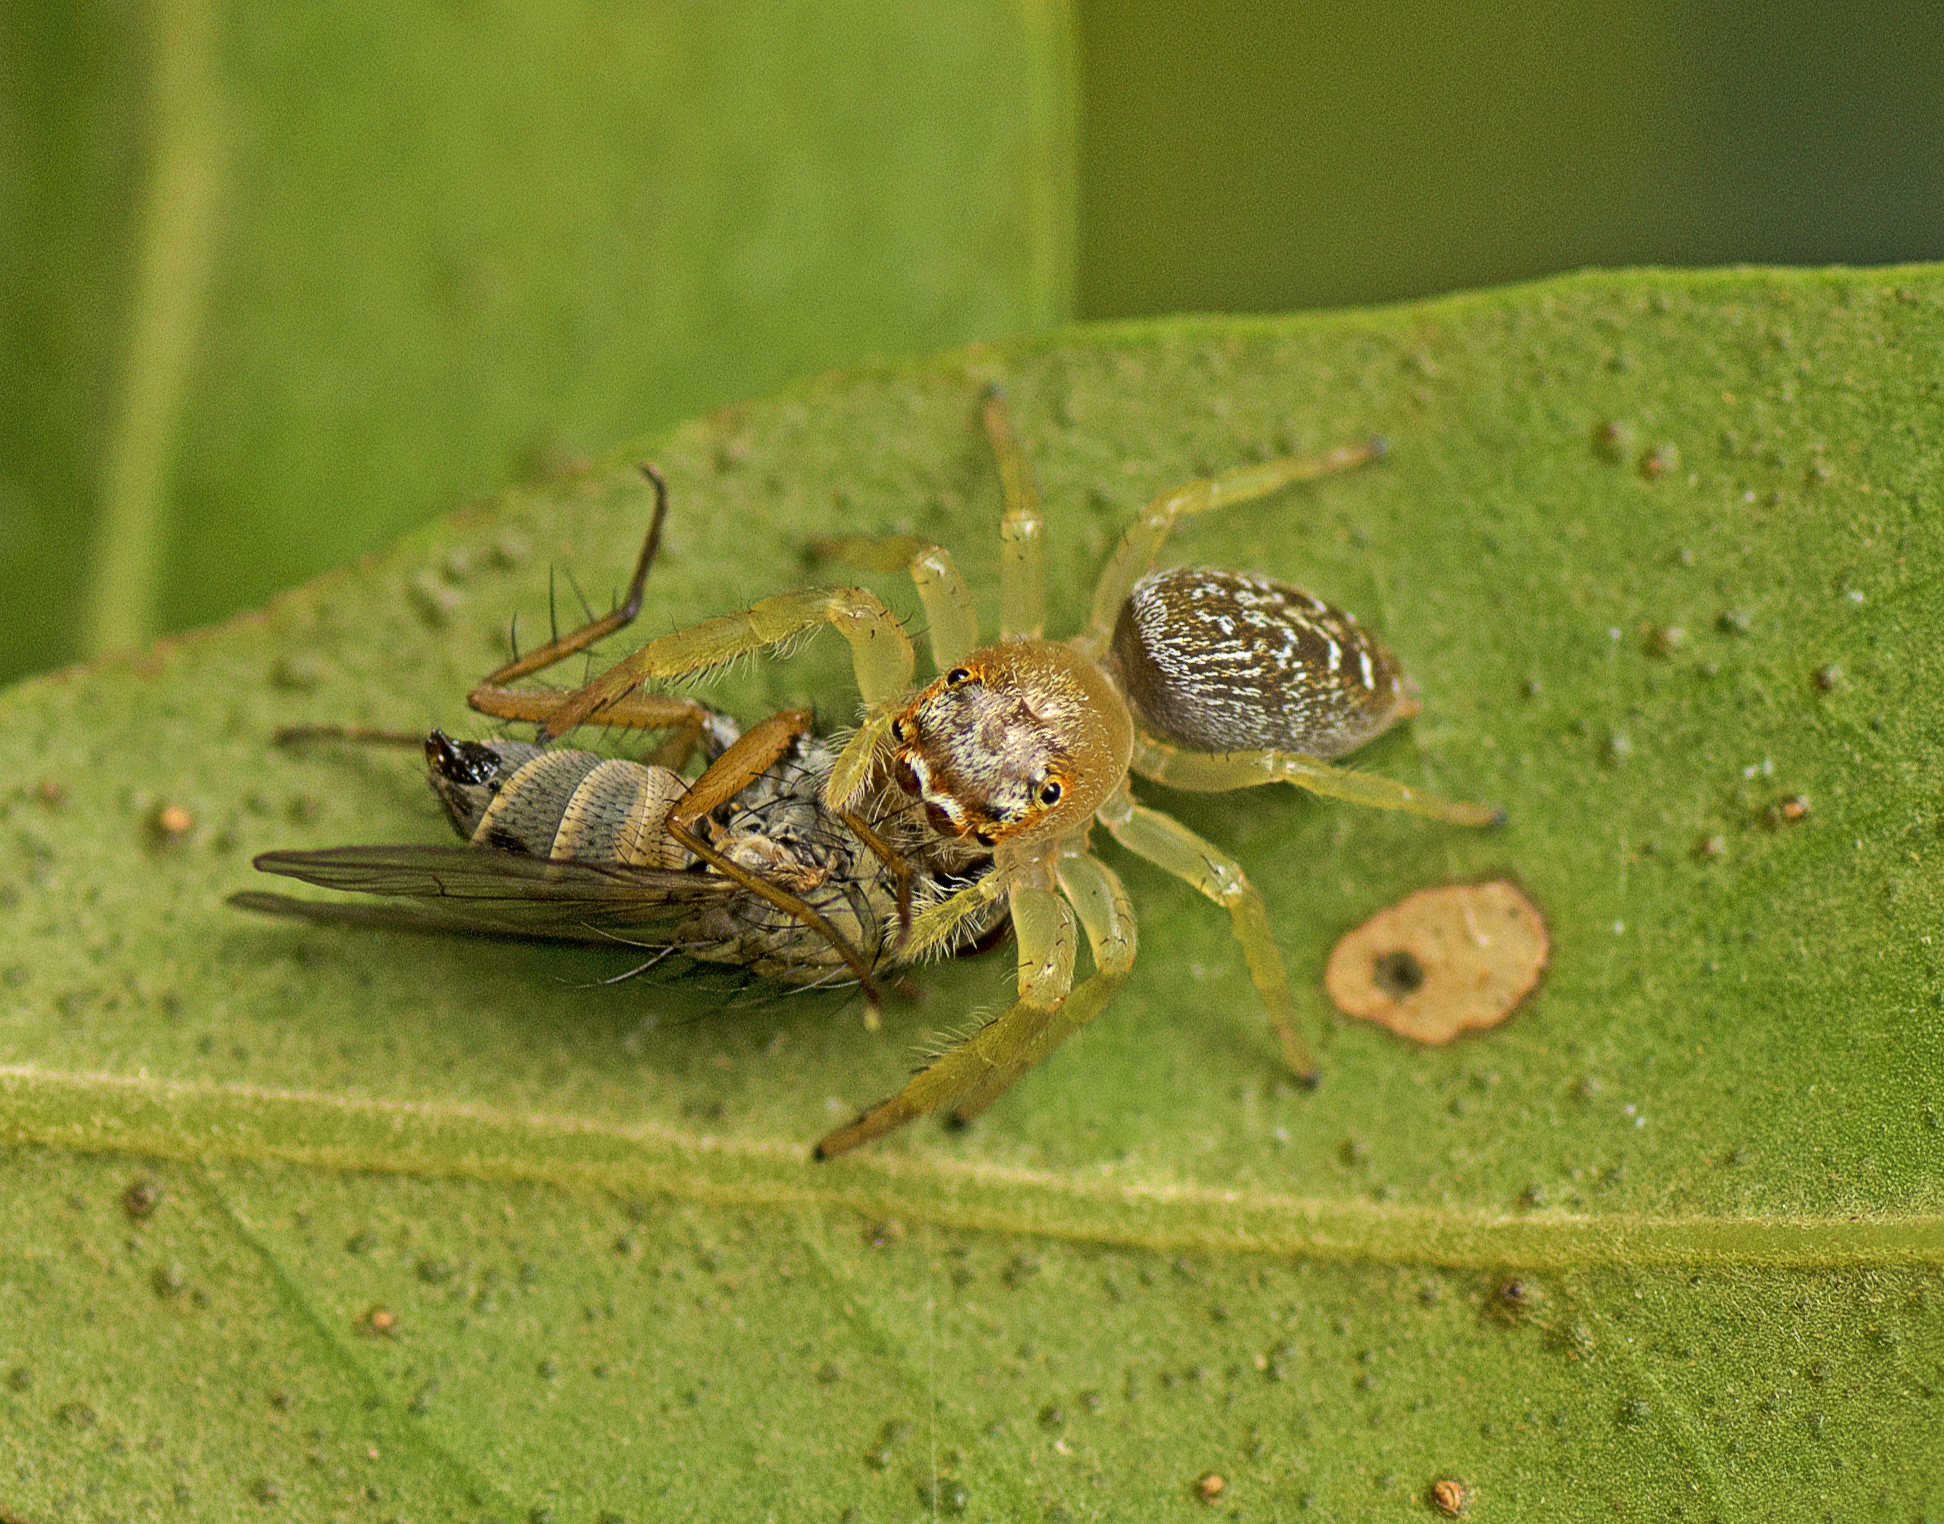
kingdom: Animalia
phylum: Arthropoda
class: Arachnida
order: Araneae
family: Salticidae
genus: Opisthoncus
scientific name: Opisthoncus quadratarius
